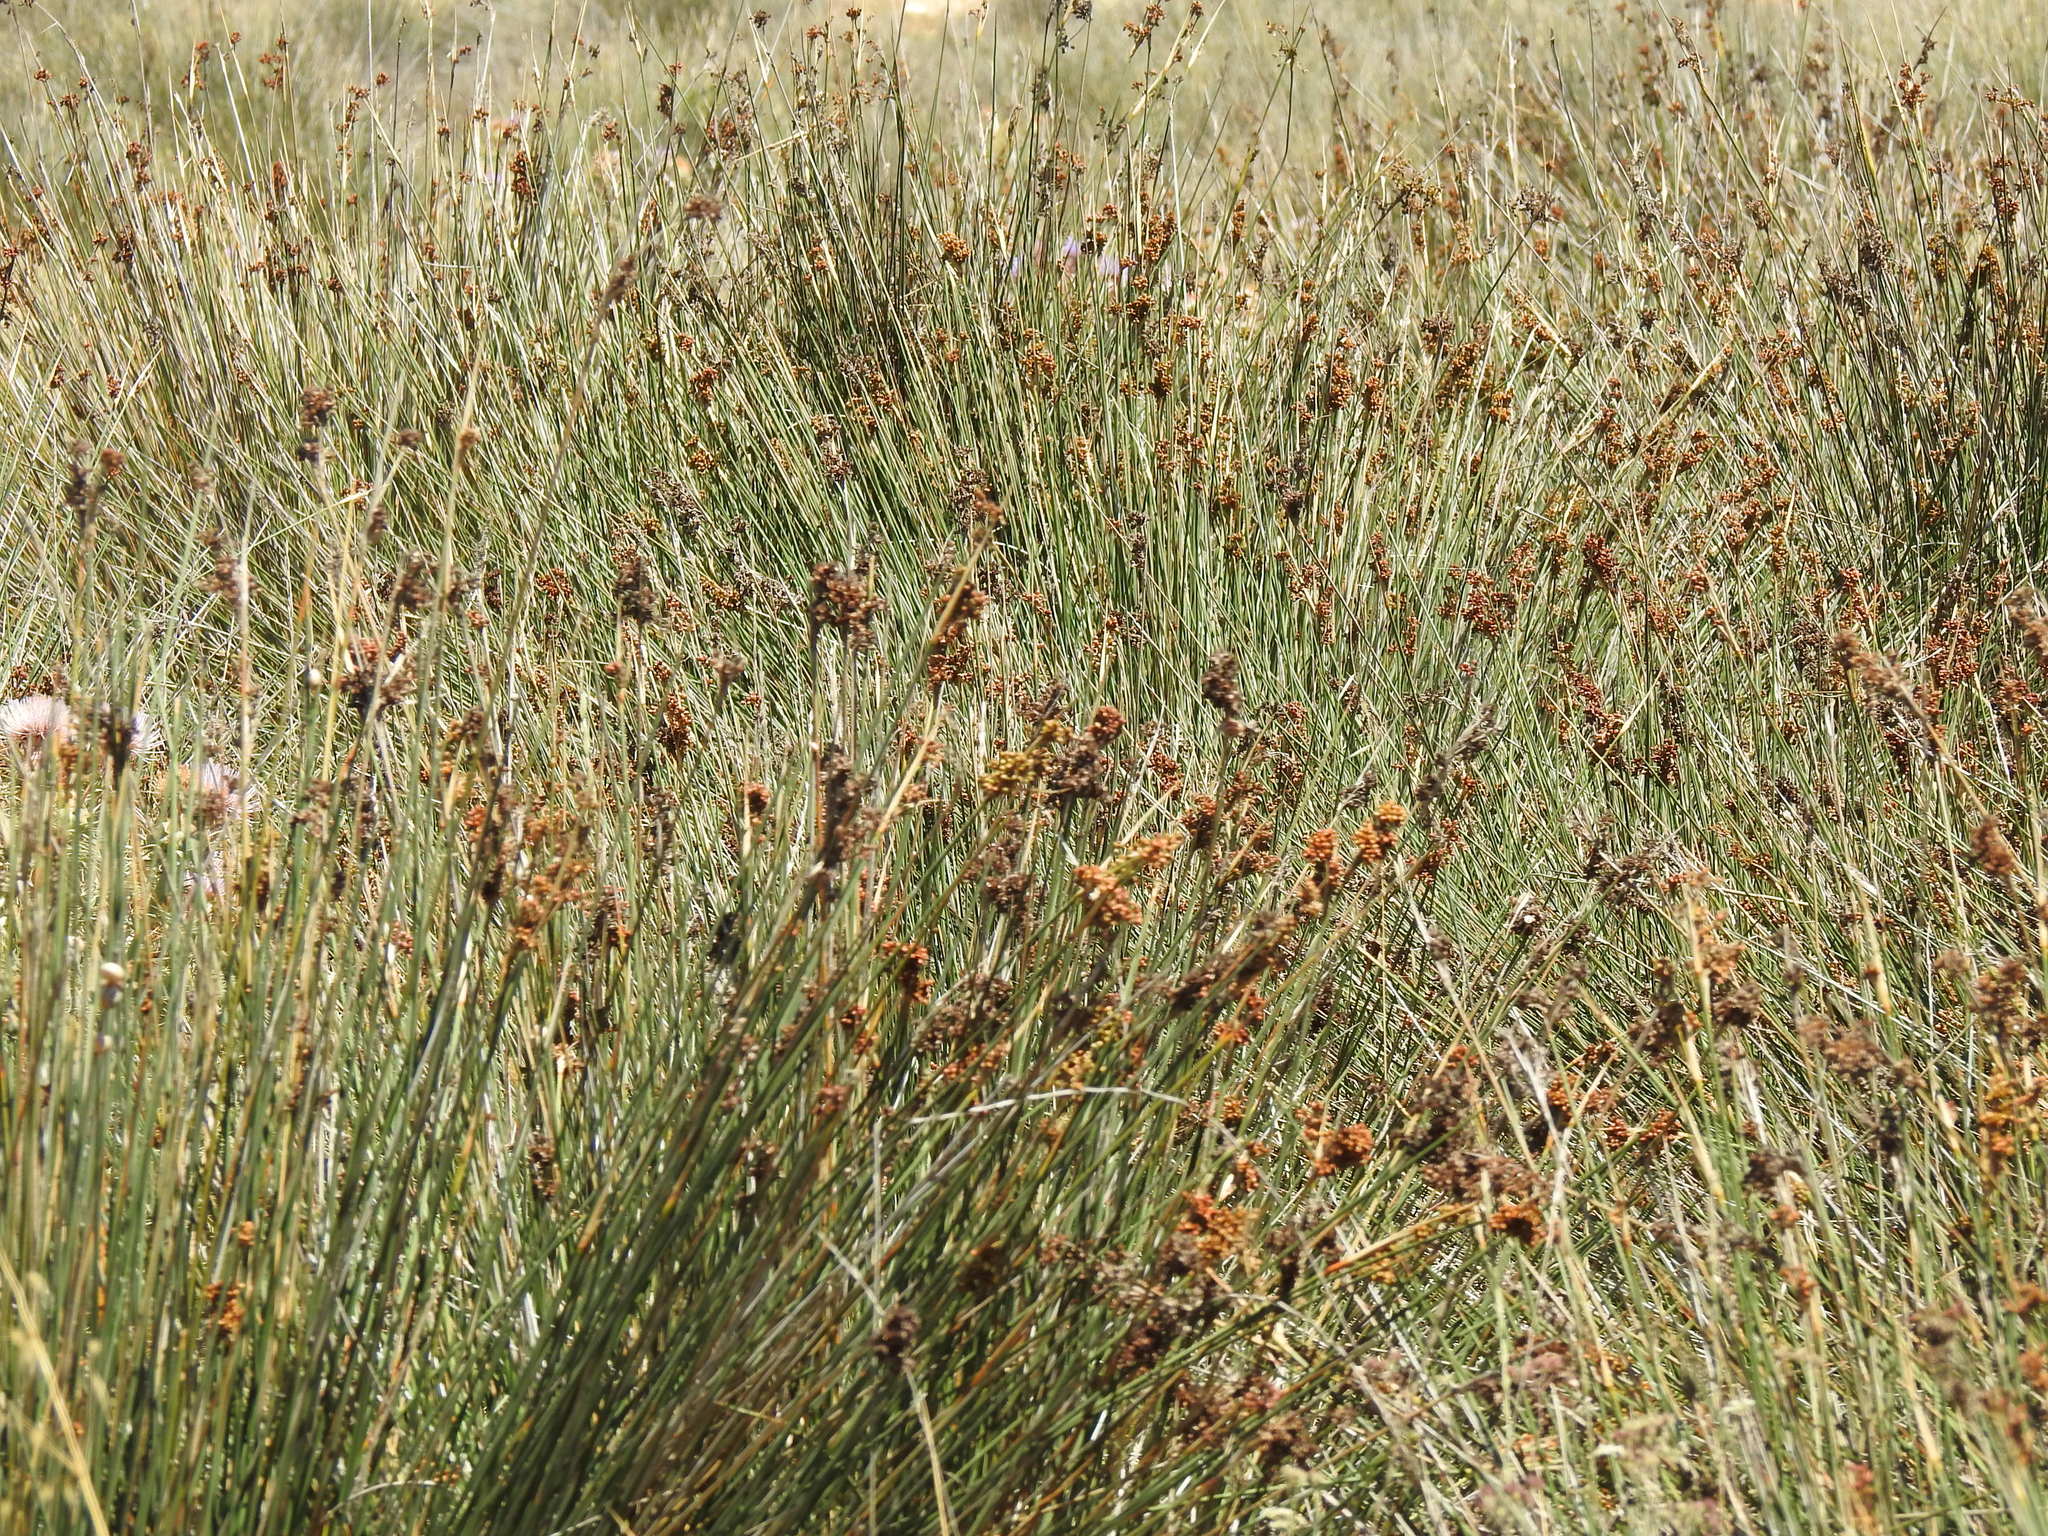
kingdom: Plantae
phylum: Tracheophyta
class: Liliopsida
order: Poales
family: Juncaceae
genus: Juncus
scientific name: Juncus acutus
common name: Sharp rush
